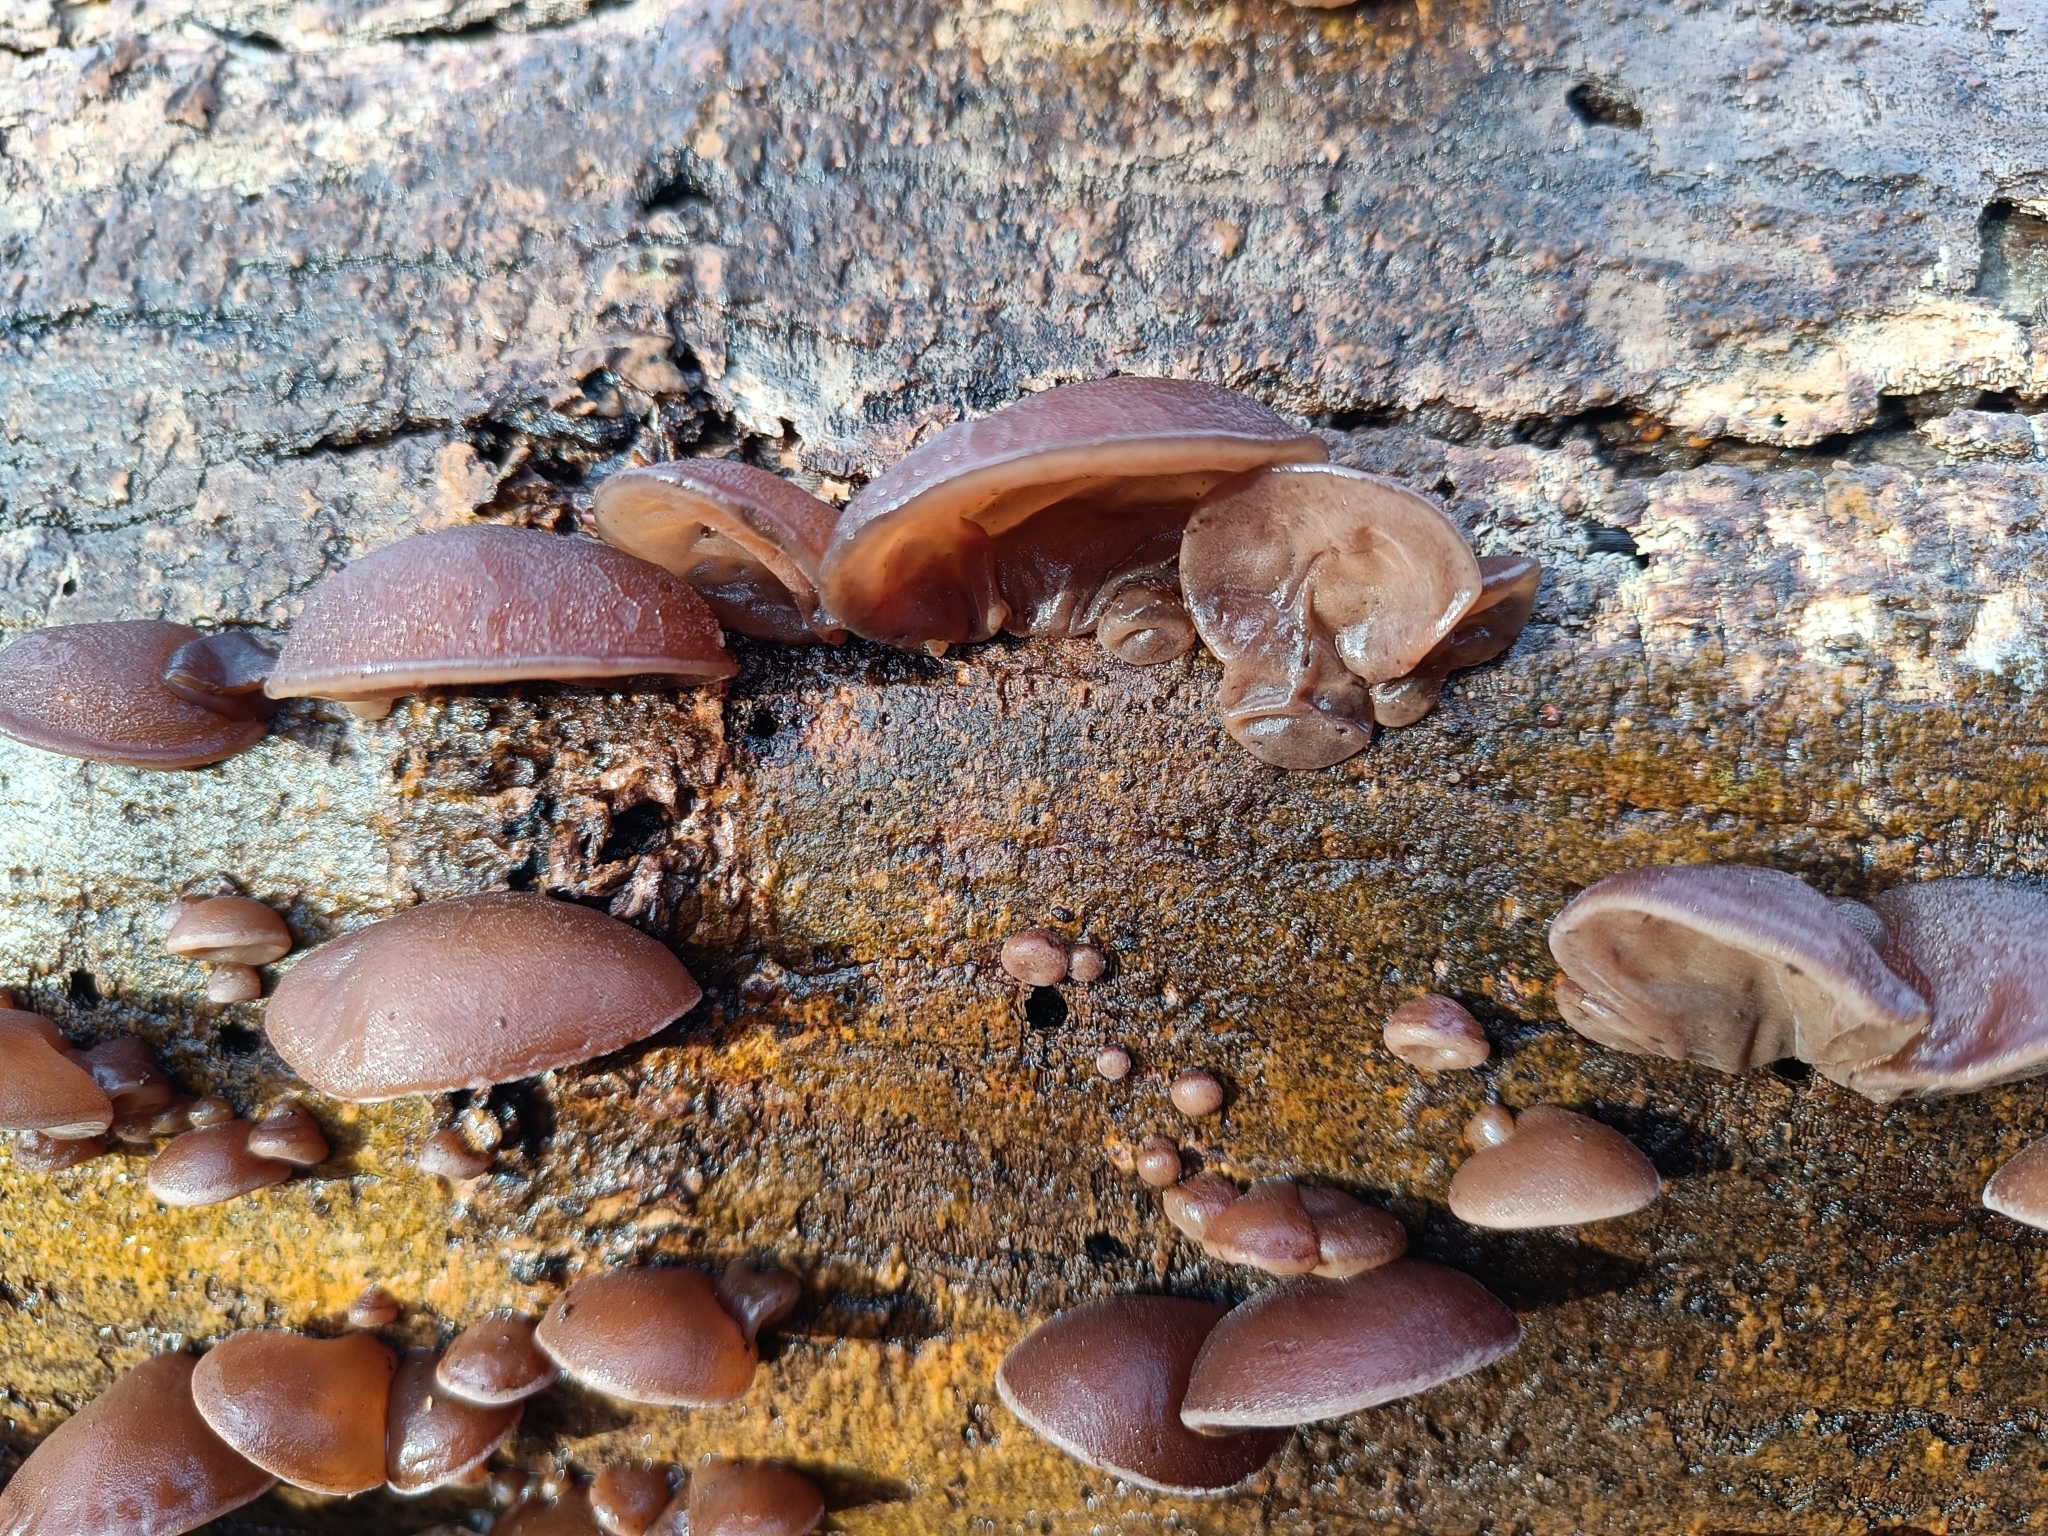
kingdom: Fungi
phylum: Basidiomycota
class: Agaricomycetes
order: Auriculariales
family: Auriculariaceae
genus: Auricularia
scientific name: Auricularia auricula-judae
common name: Jelly ear
